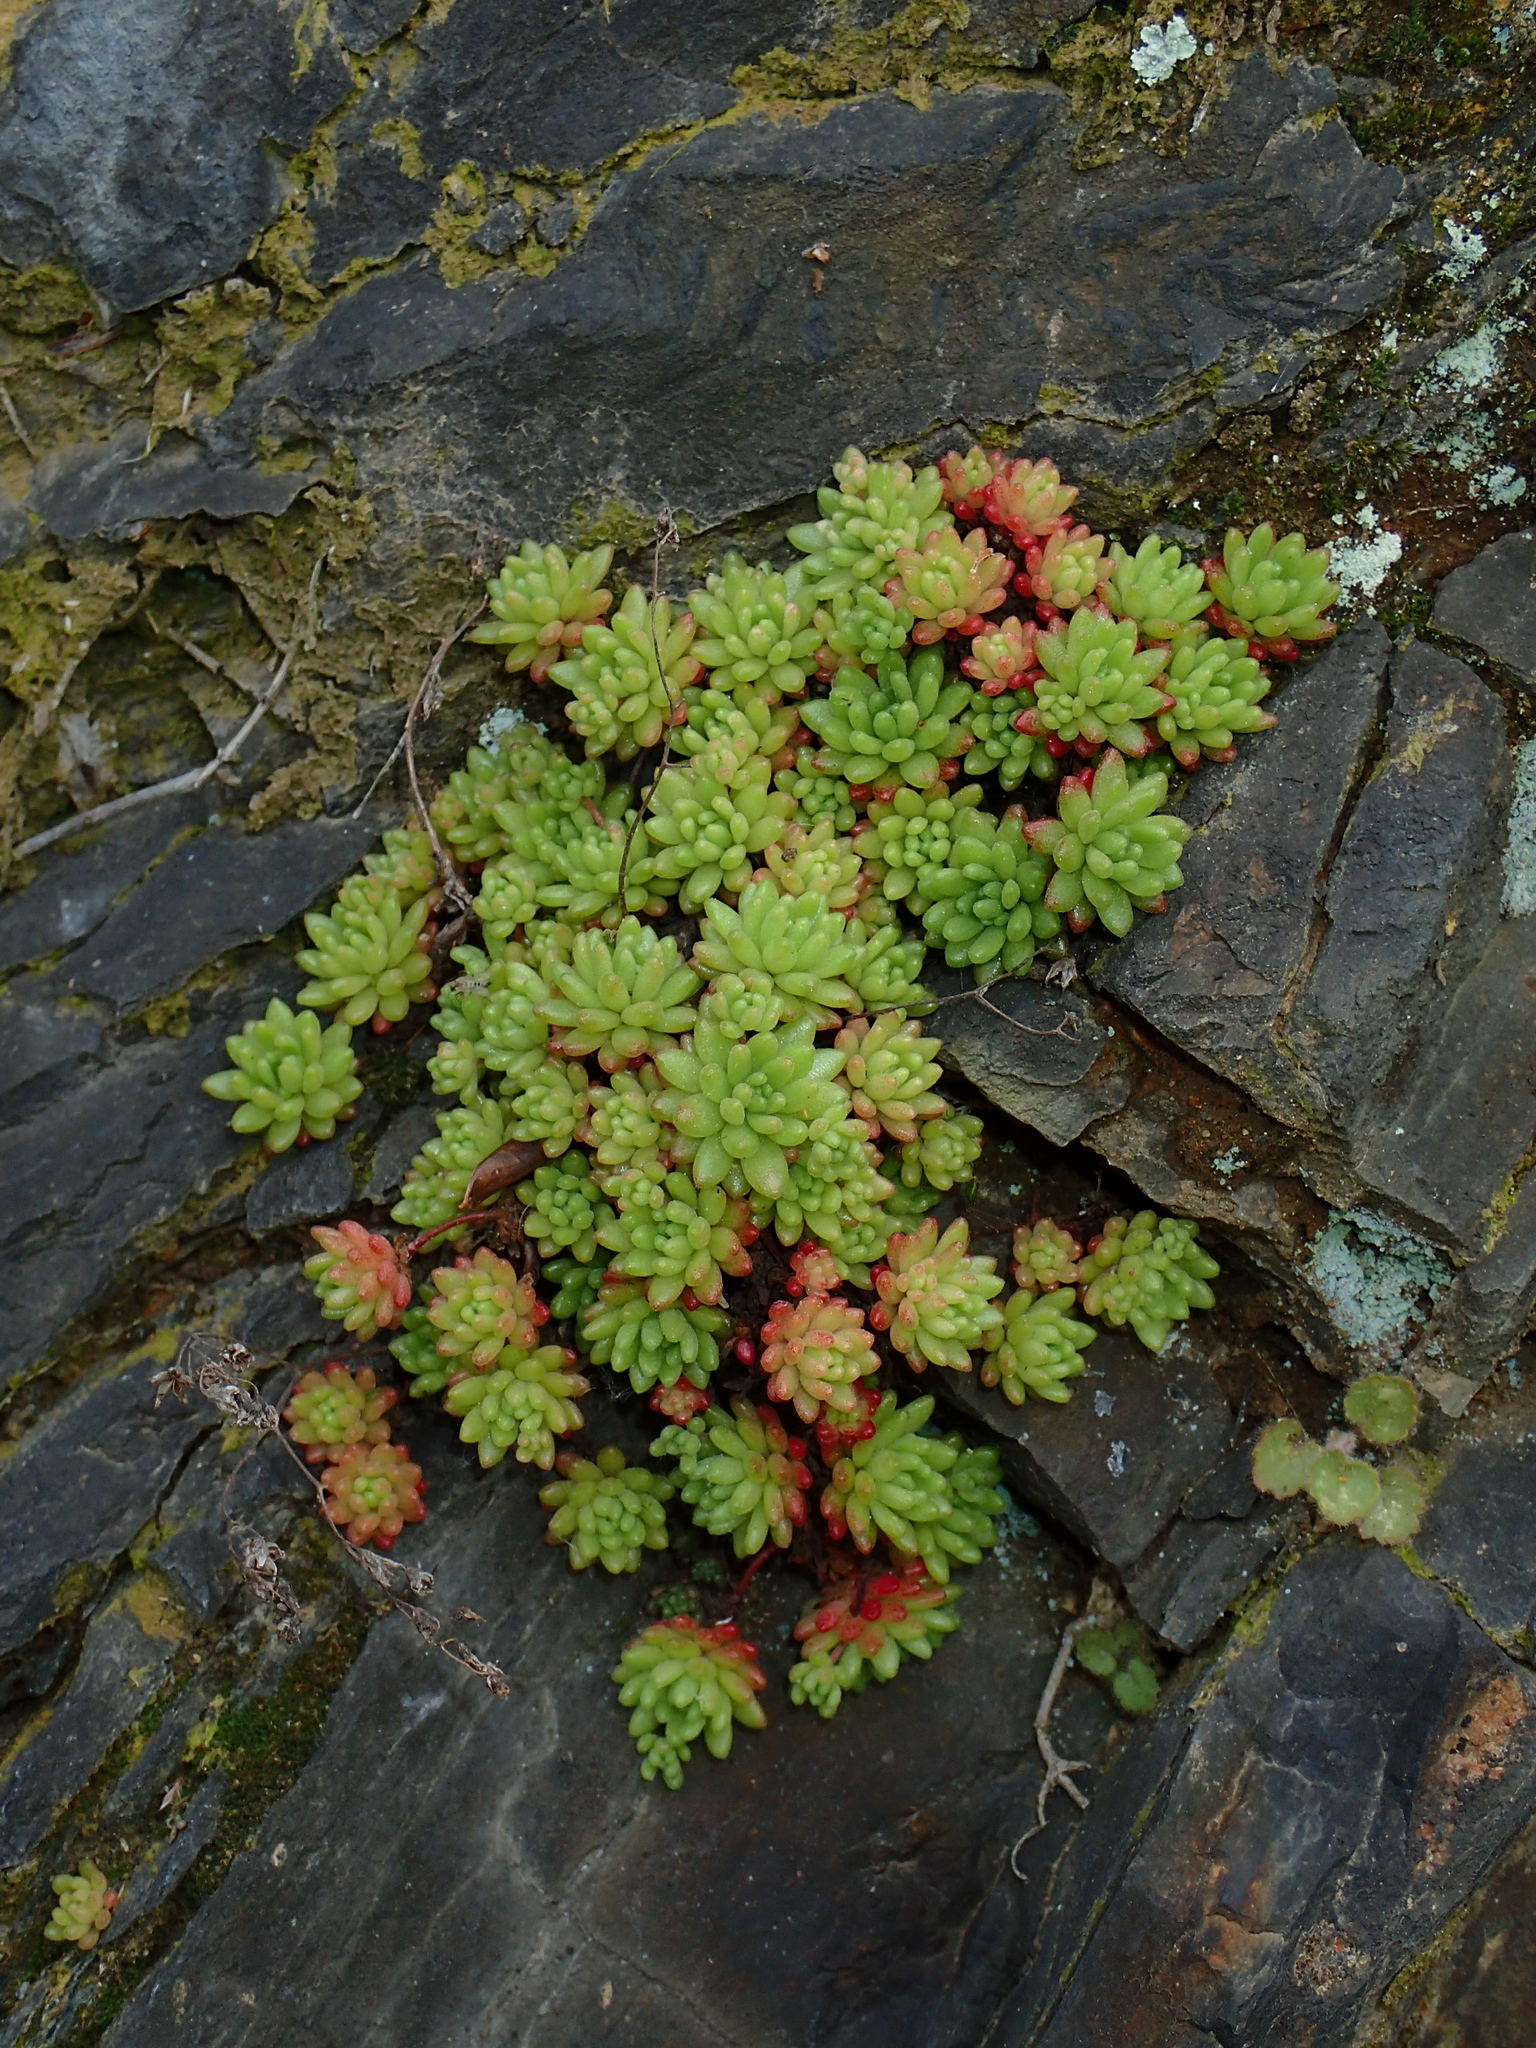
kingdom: Plantae
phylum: Tracheophyta
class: Magnoliopsida
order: Saxifragales
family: Crassulaceae
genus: Sedum
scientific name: Sedum hirsutum
